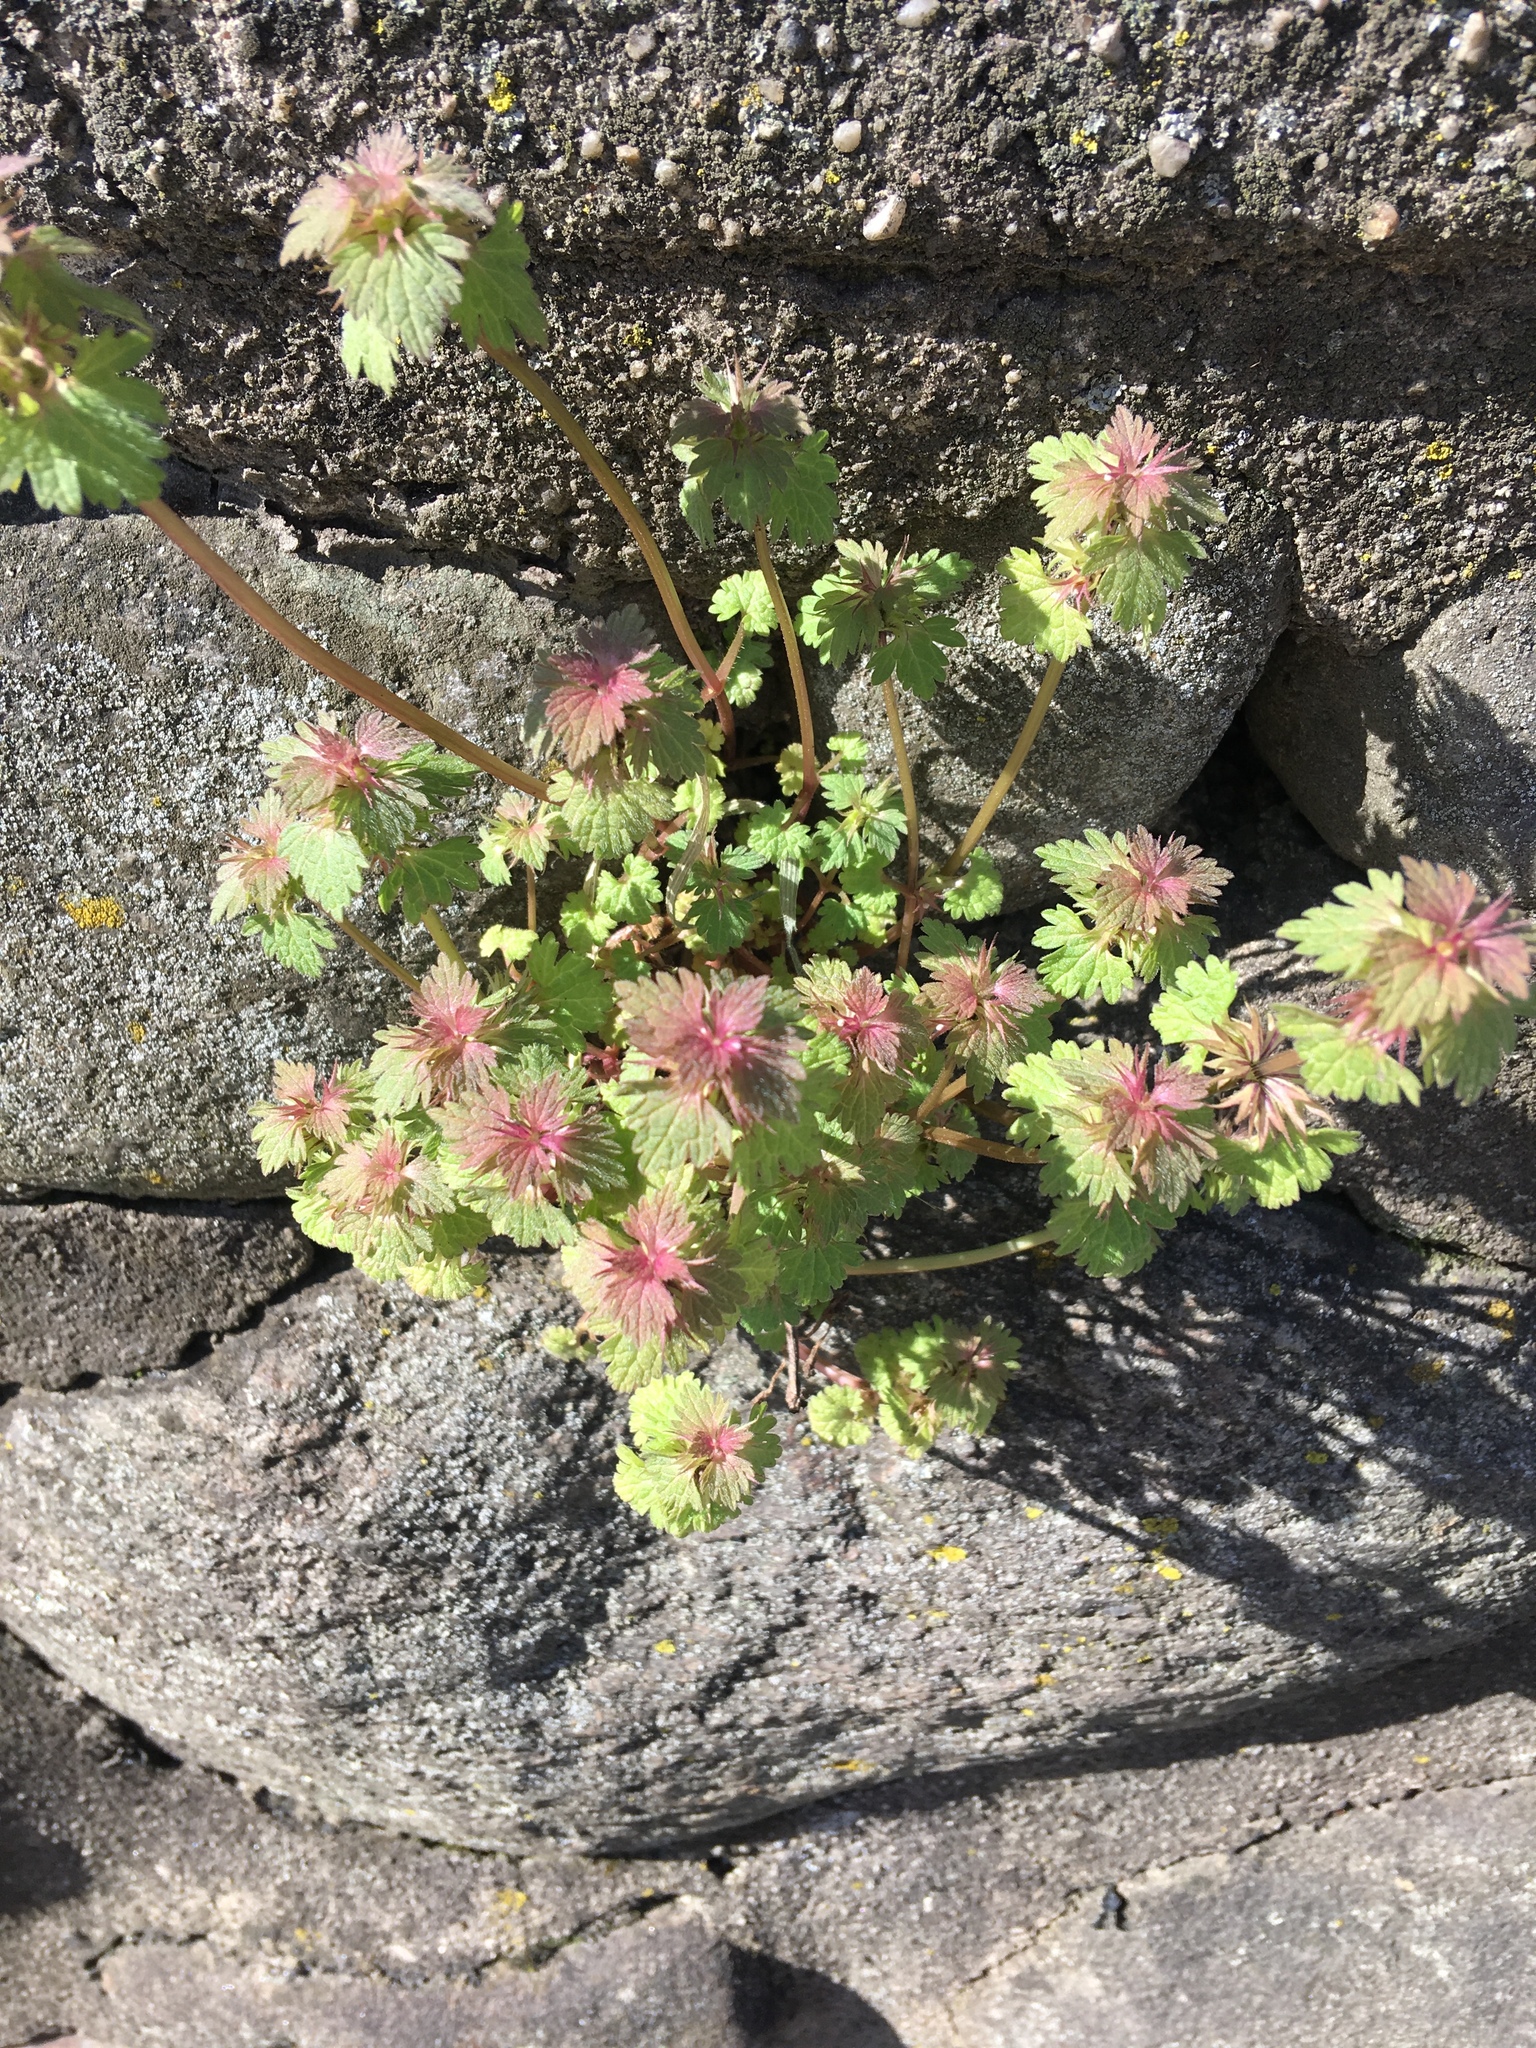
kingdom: Plantae
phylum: Tracheophyta
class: Magnoliopsida
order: Lamiales
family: Lamiaceae
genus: Lamium
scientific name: Lamium hybridum
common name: Cut-leaved dead-nettle
